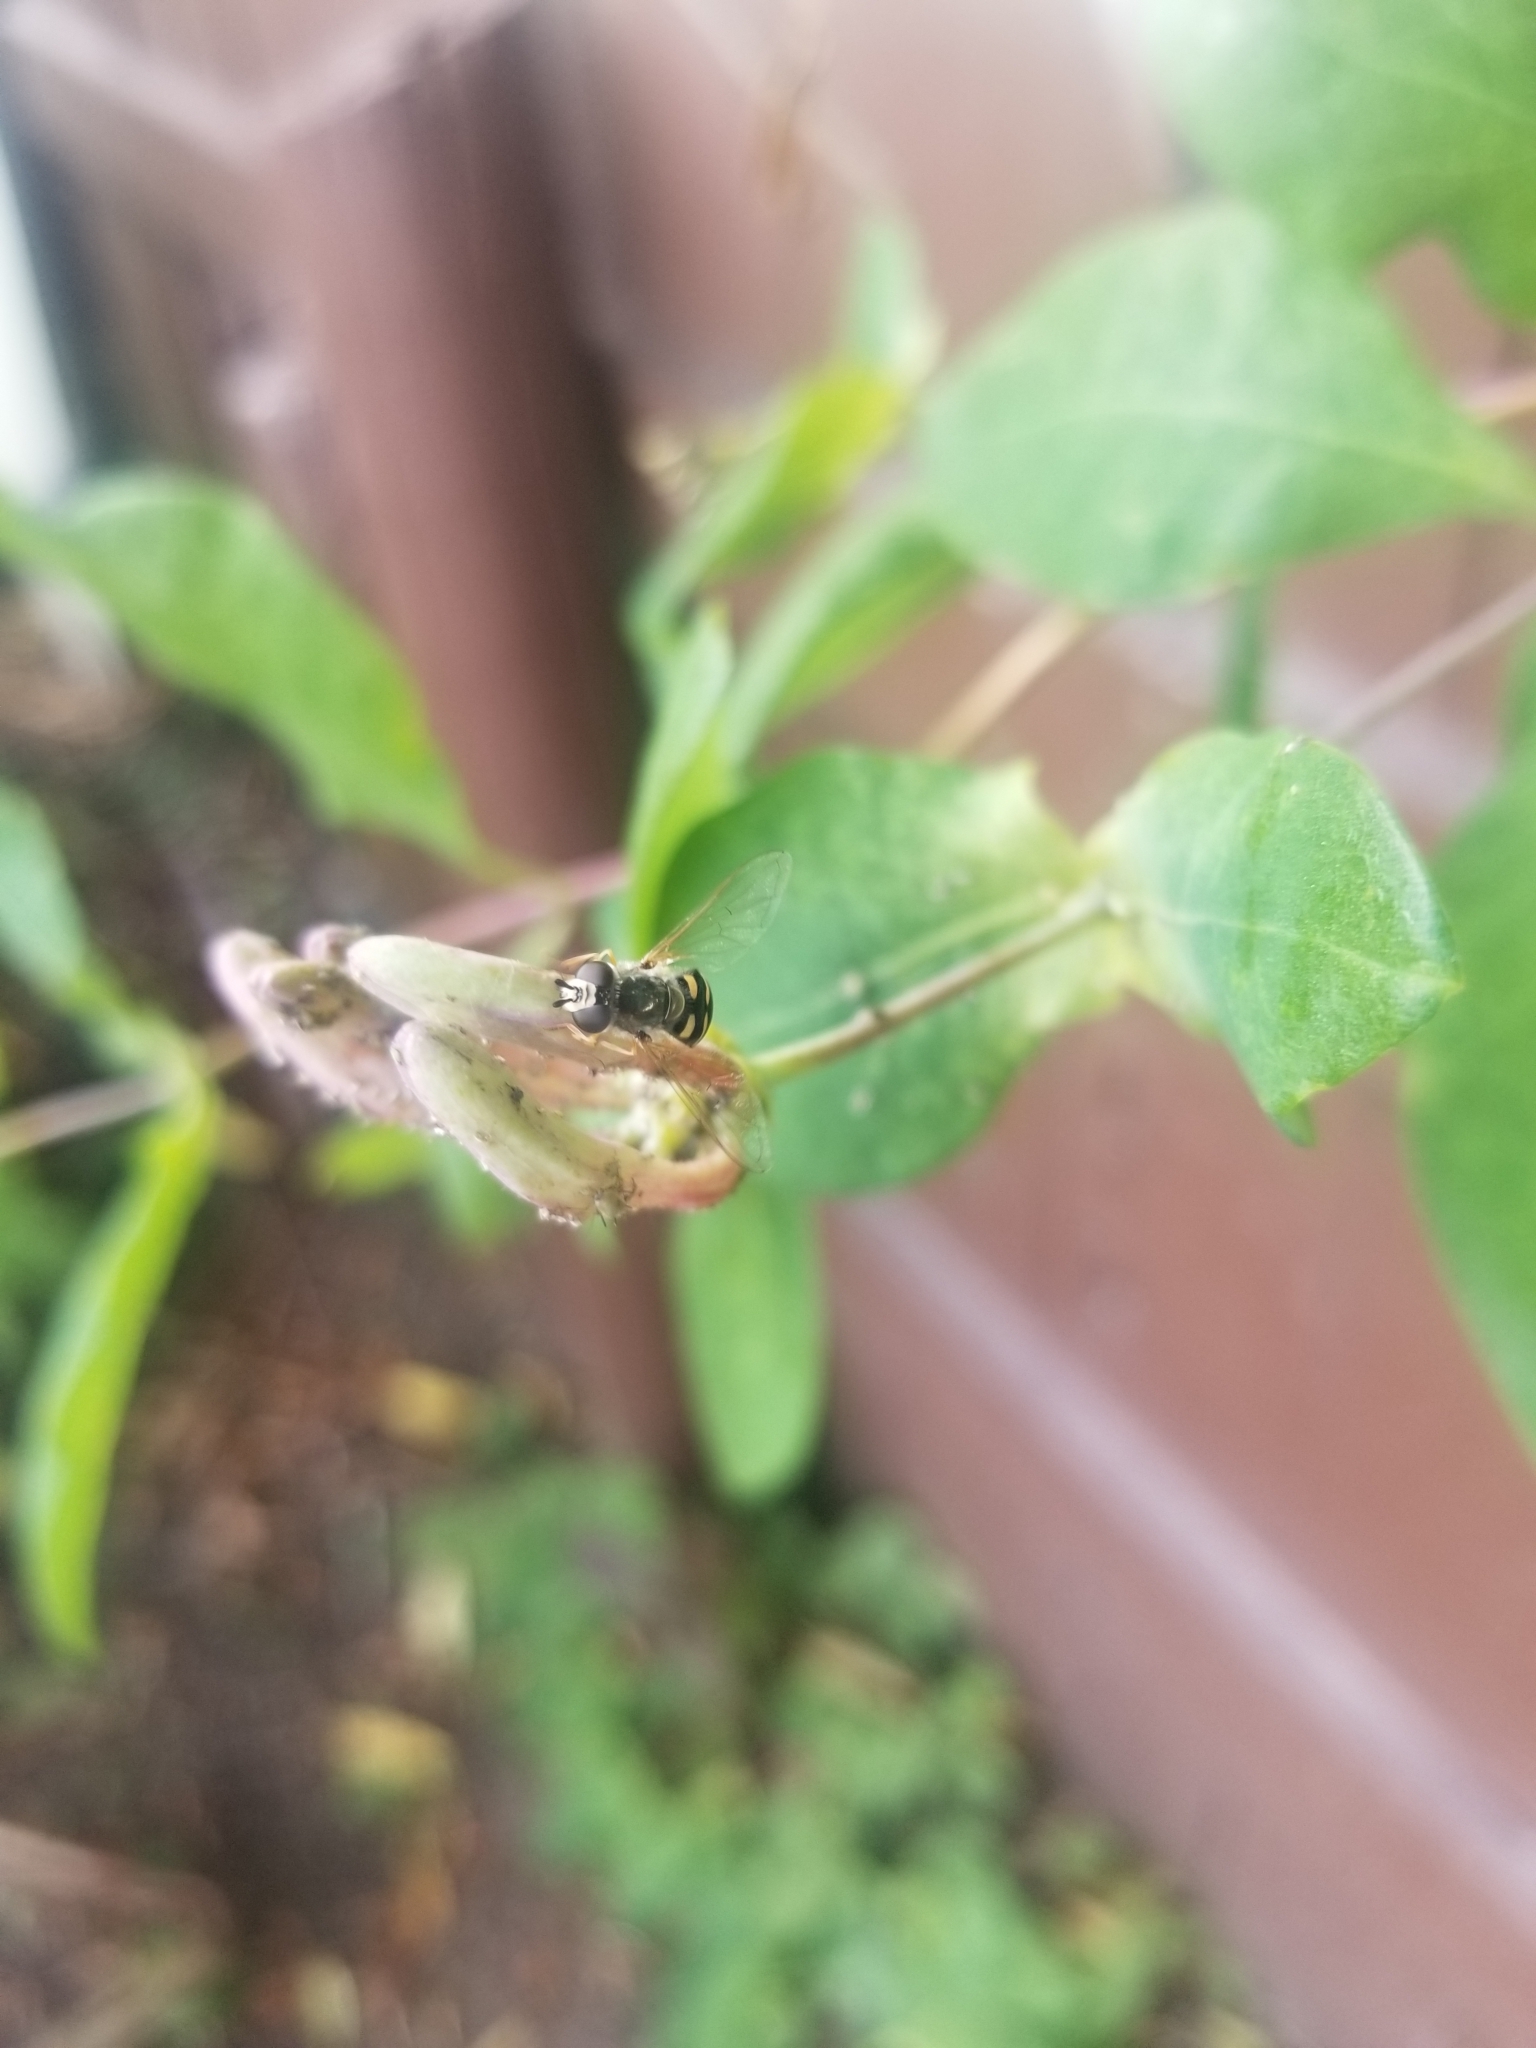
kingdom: Animalia
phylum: Arthropoda
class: Insecta
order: Diptera
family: Syrphidae
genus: Eupeodes
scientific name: Eupeodes volucris
